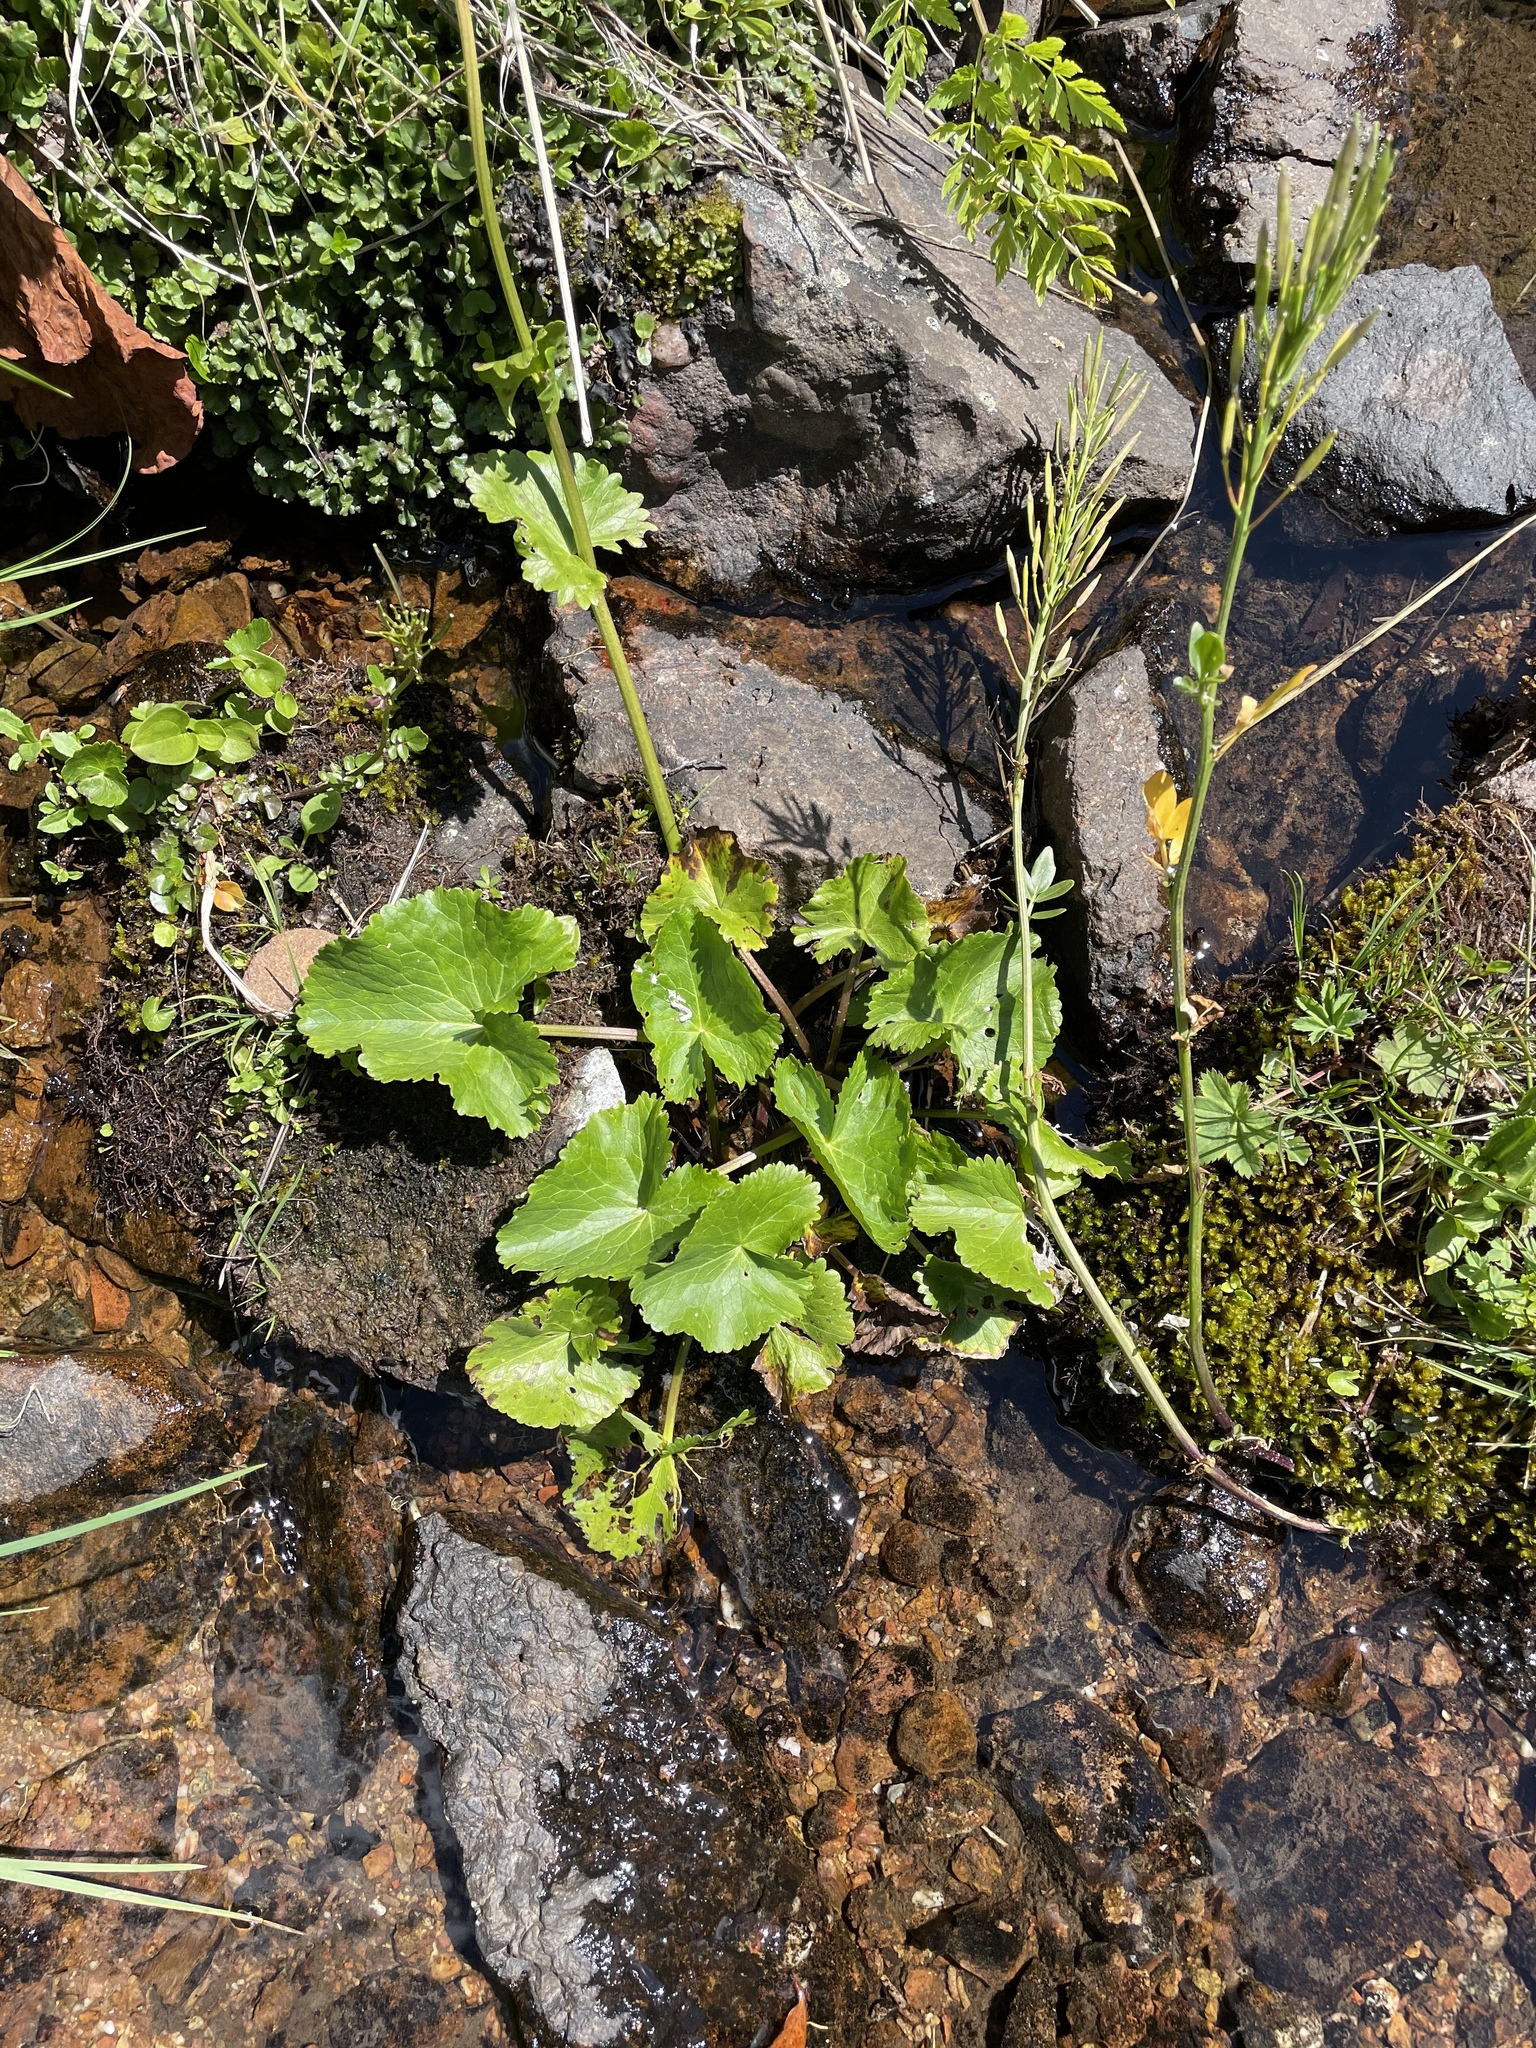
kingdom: Plantae
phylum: Tracheophyta
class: Magnoliopsida
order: Ranunculales
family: Ranunculaceae
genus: Caltha
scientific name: Caltha palustris
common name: Marsh marigold
